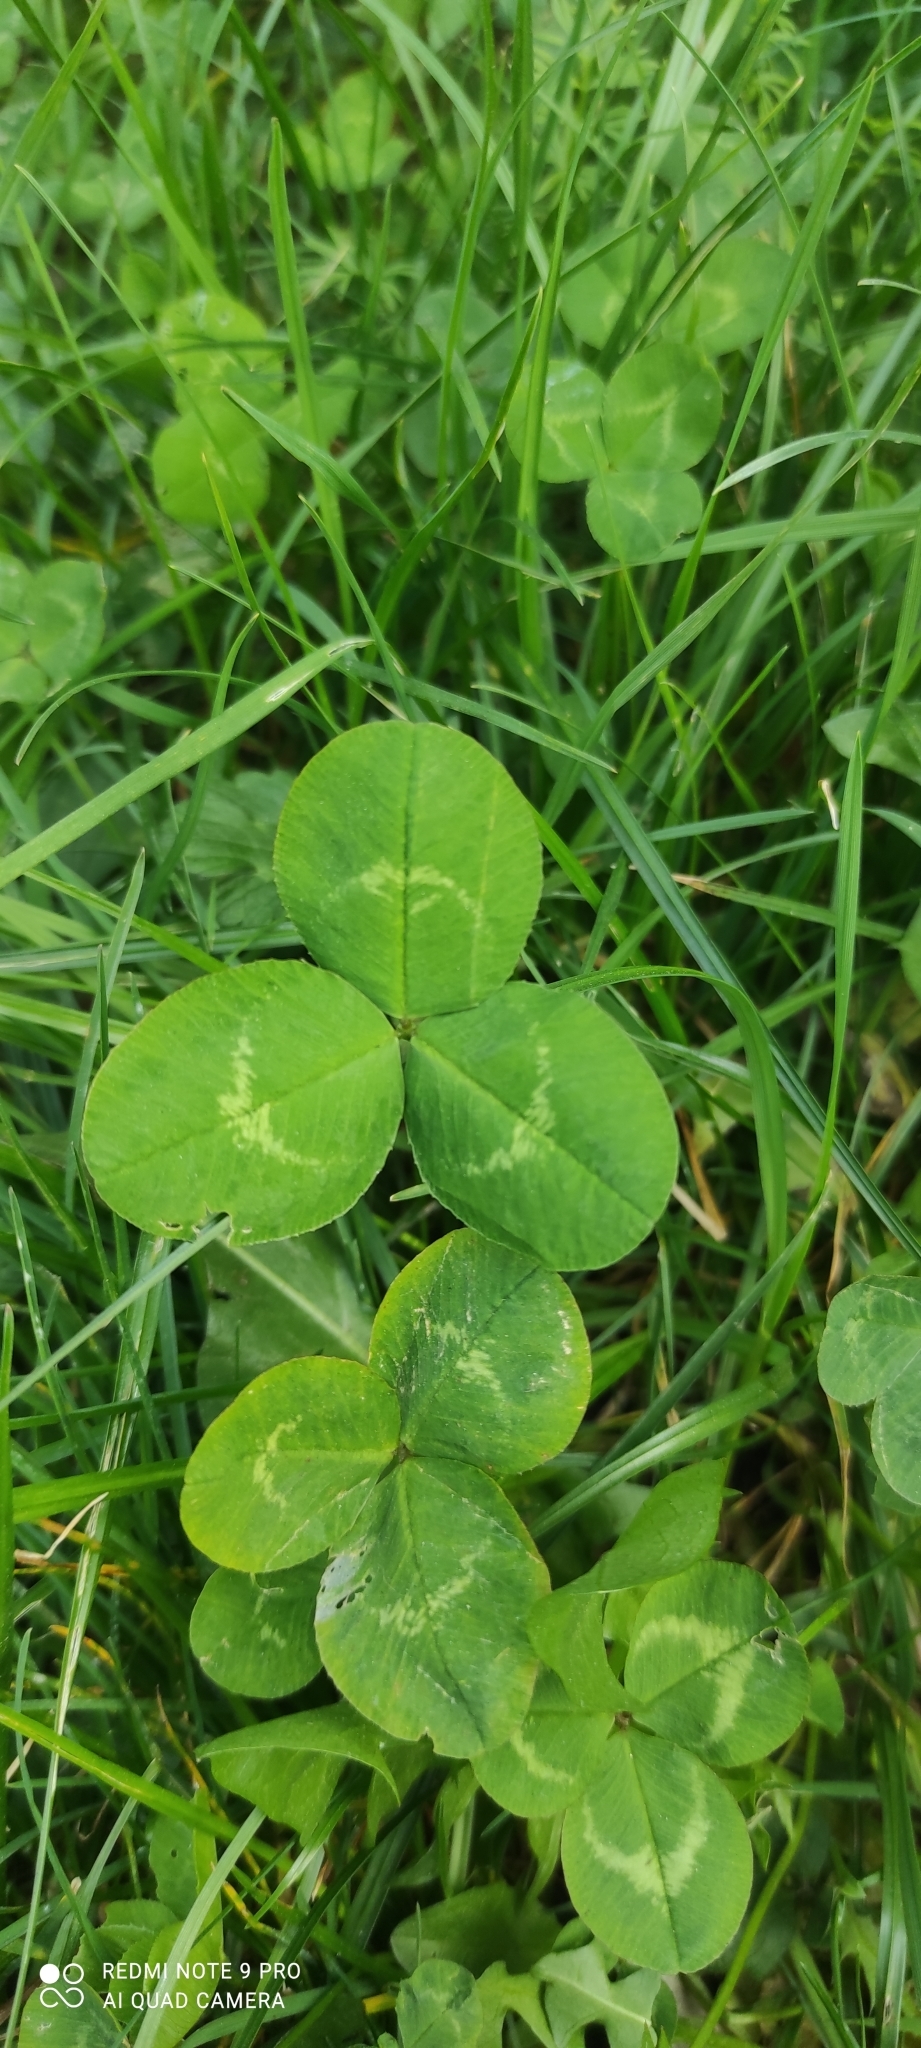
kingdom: Plantae
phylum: Tracheophyta
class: Magnoliopsida
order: Fabales
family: Fabaceae
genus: Trifolium
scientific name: Trifolium repens
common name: White clover
